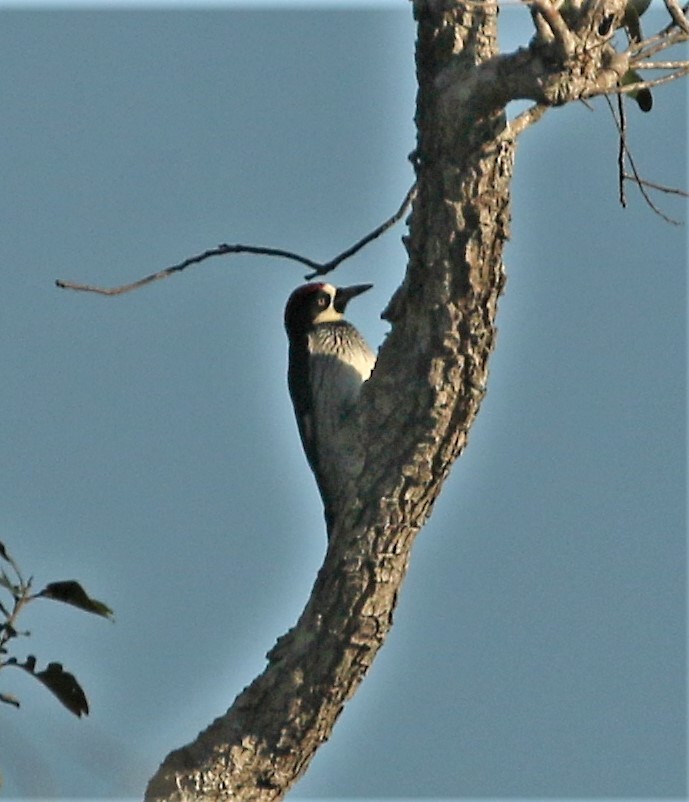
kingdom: Animalia
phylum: Chordata
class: Aves
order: Piciformes
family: Picidae
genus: Melanerpes
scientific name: Melanerpes formicivorus
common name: Acorn woodpecker
